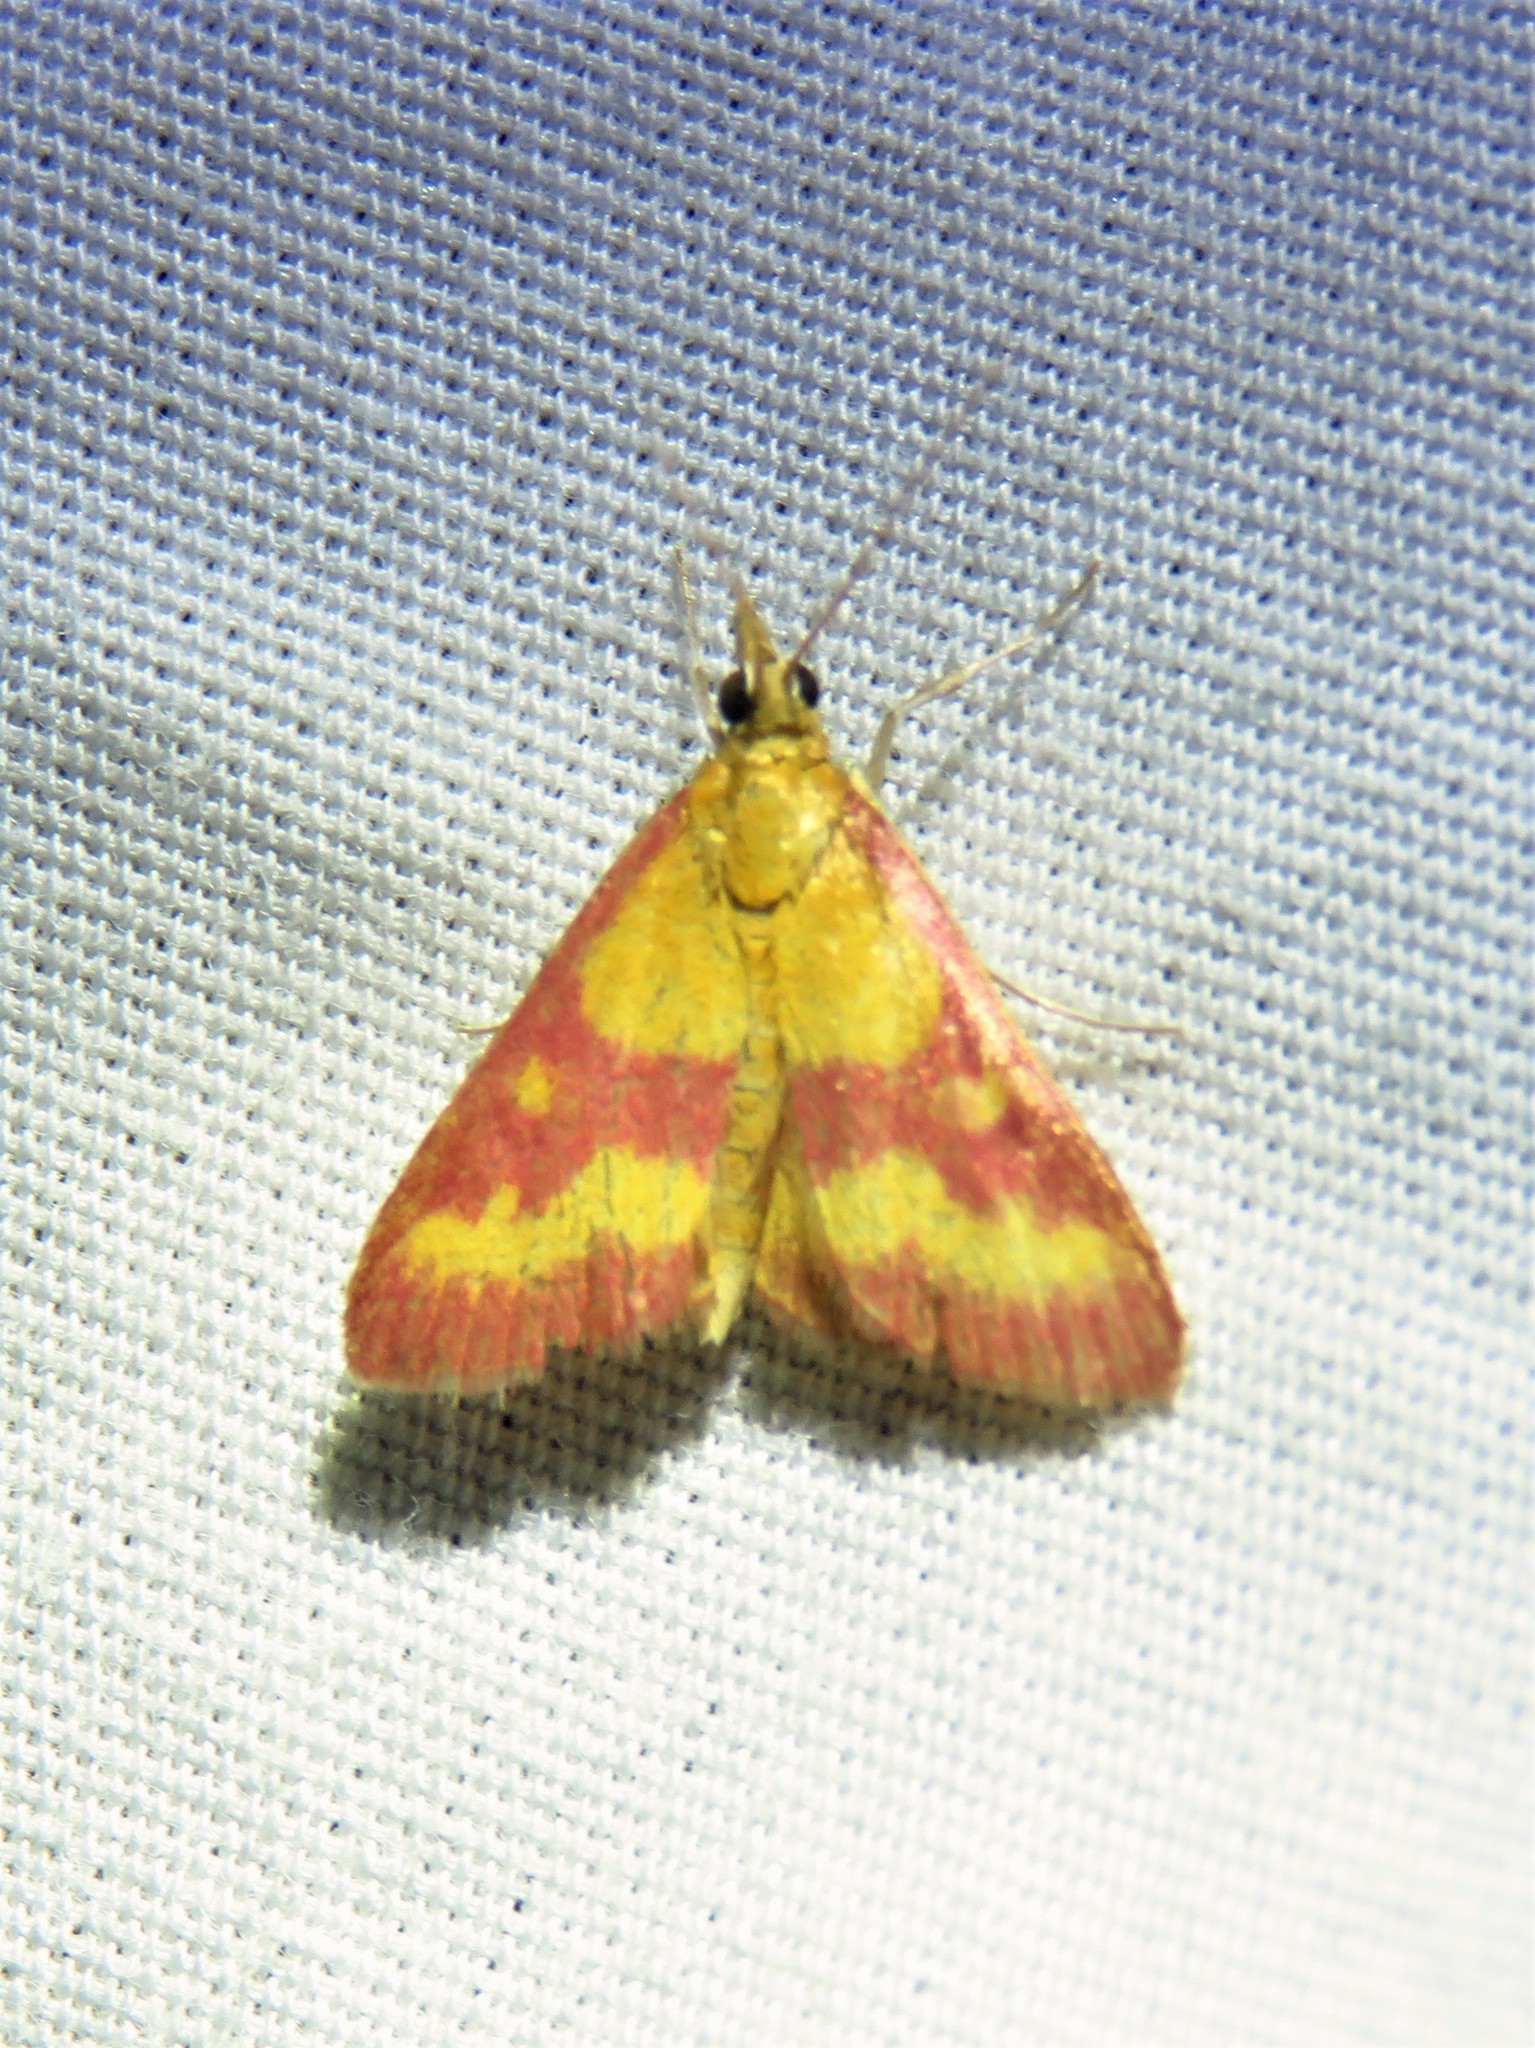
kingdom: Animalia
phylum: Arthropoda
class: Insecta
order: Lepidoptera
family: Crambidae
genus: Pyrausta
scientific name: Pyrausta laticlavia
